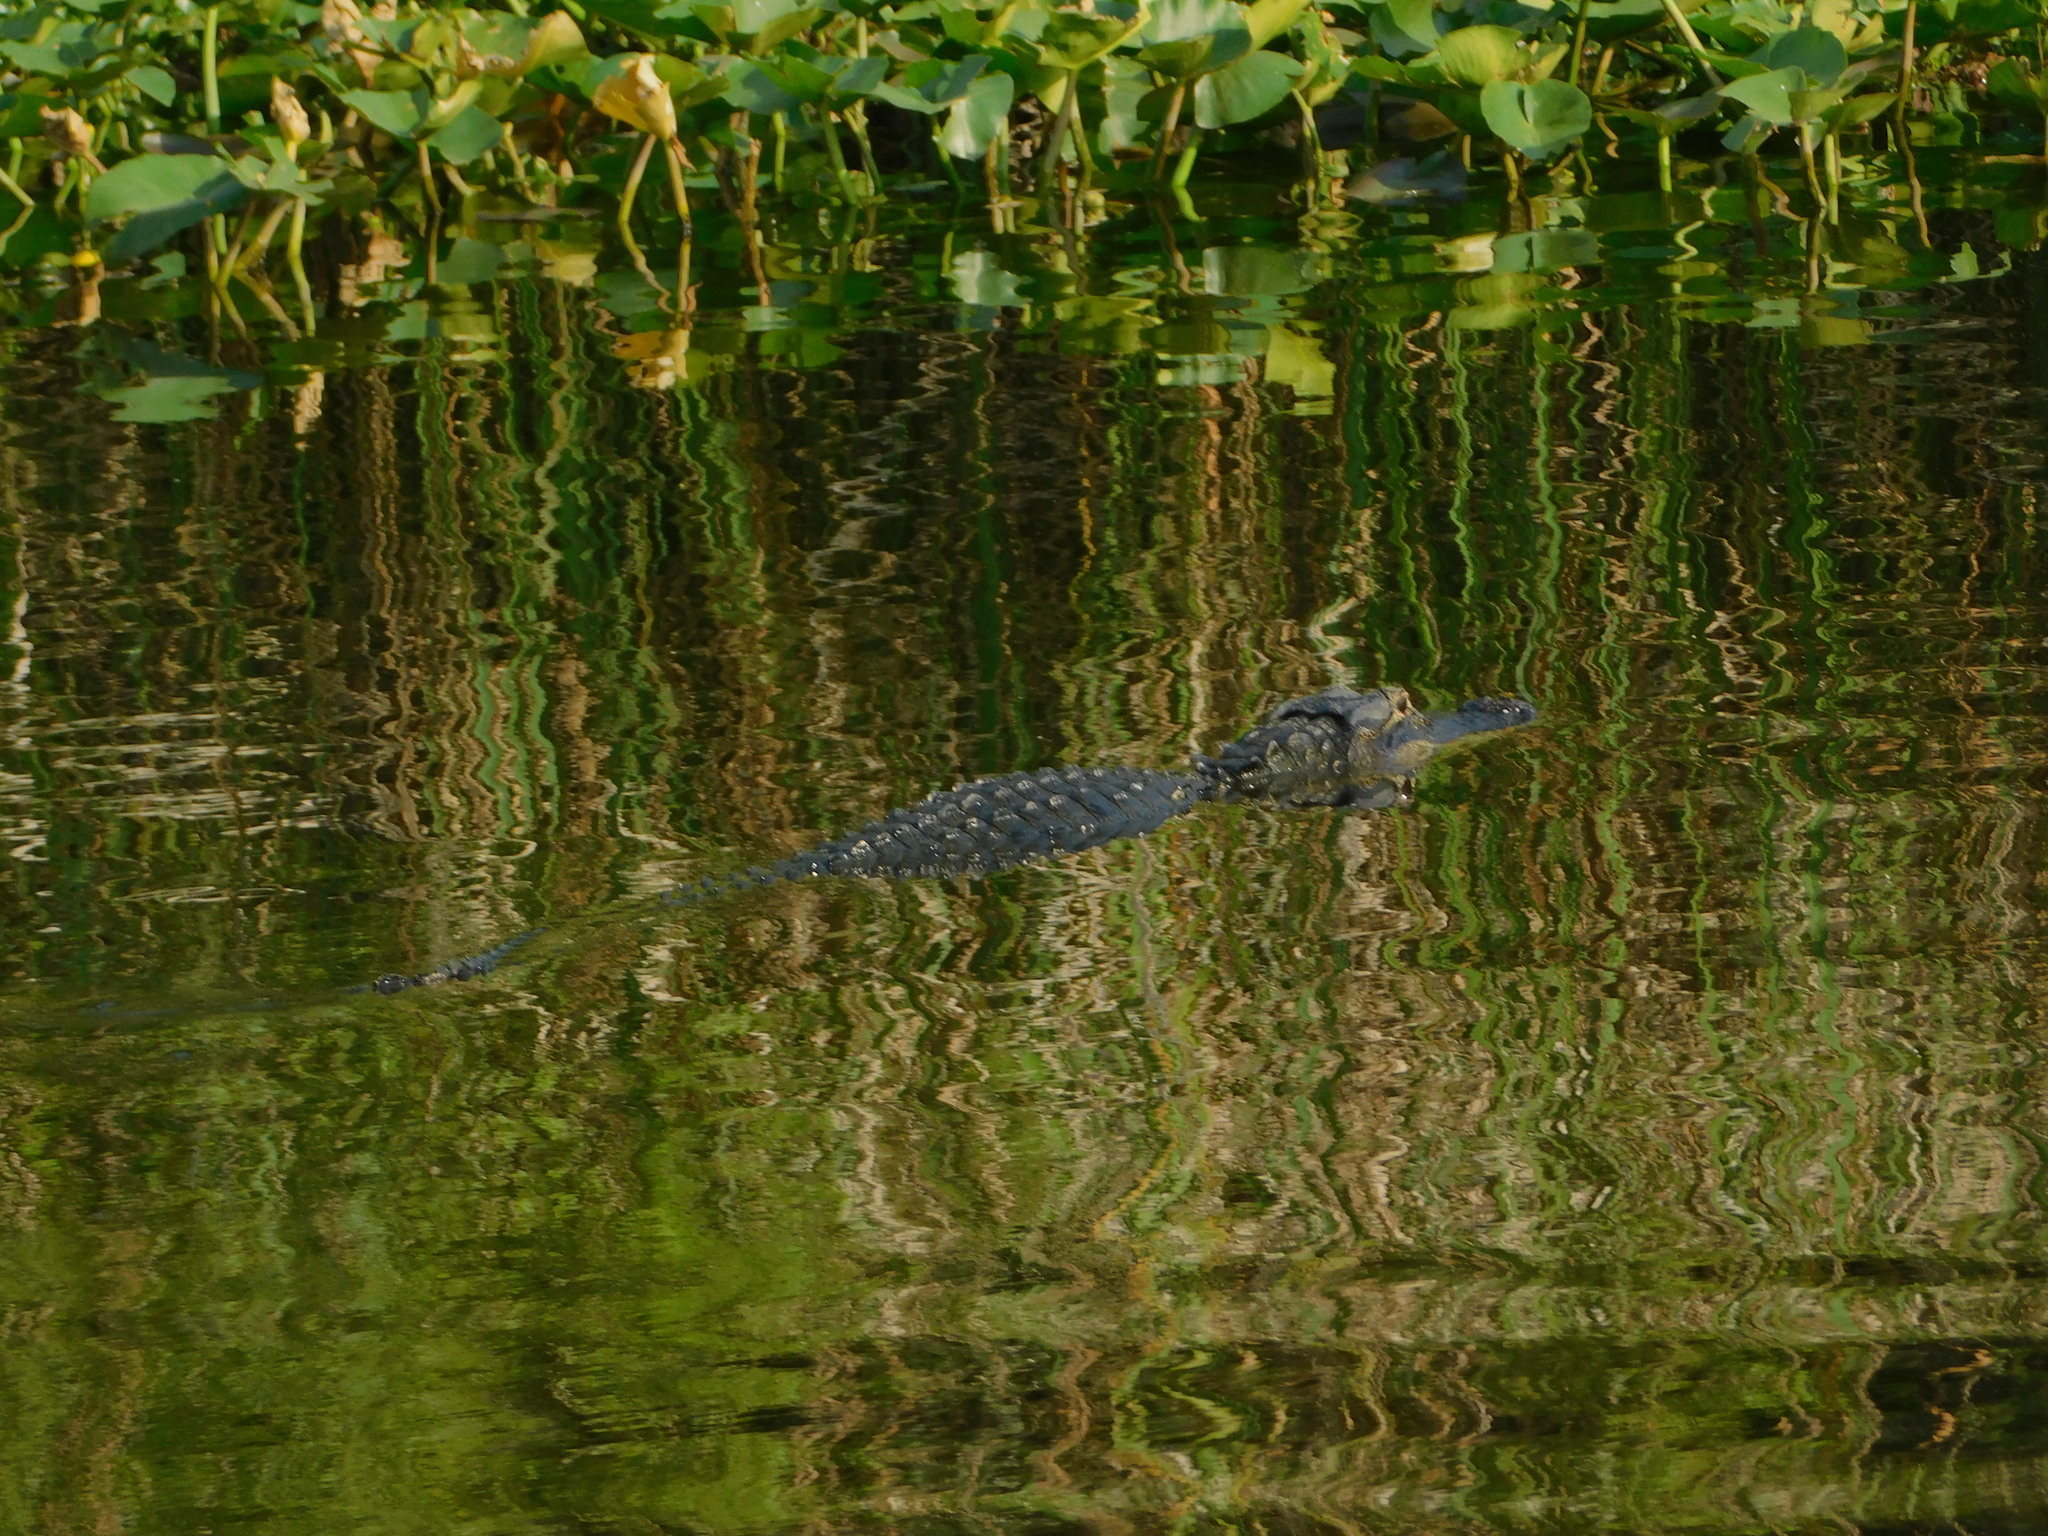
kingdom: Animalia
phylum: Chordata
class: Crocodylia
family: Alligatoridae
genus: Alligator
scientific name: Alligator mississippiensis
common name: American alligator
